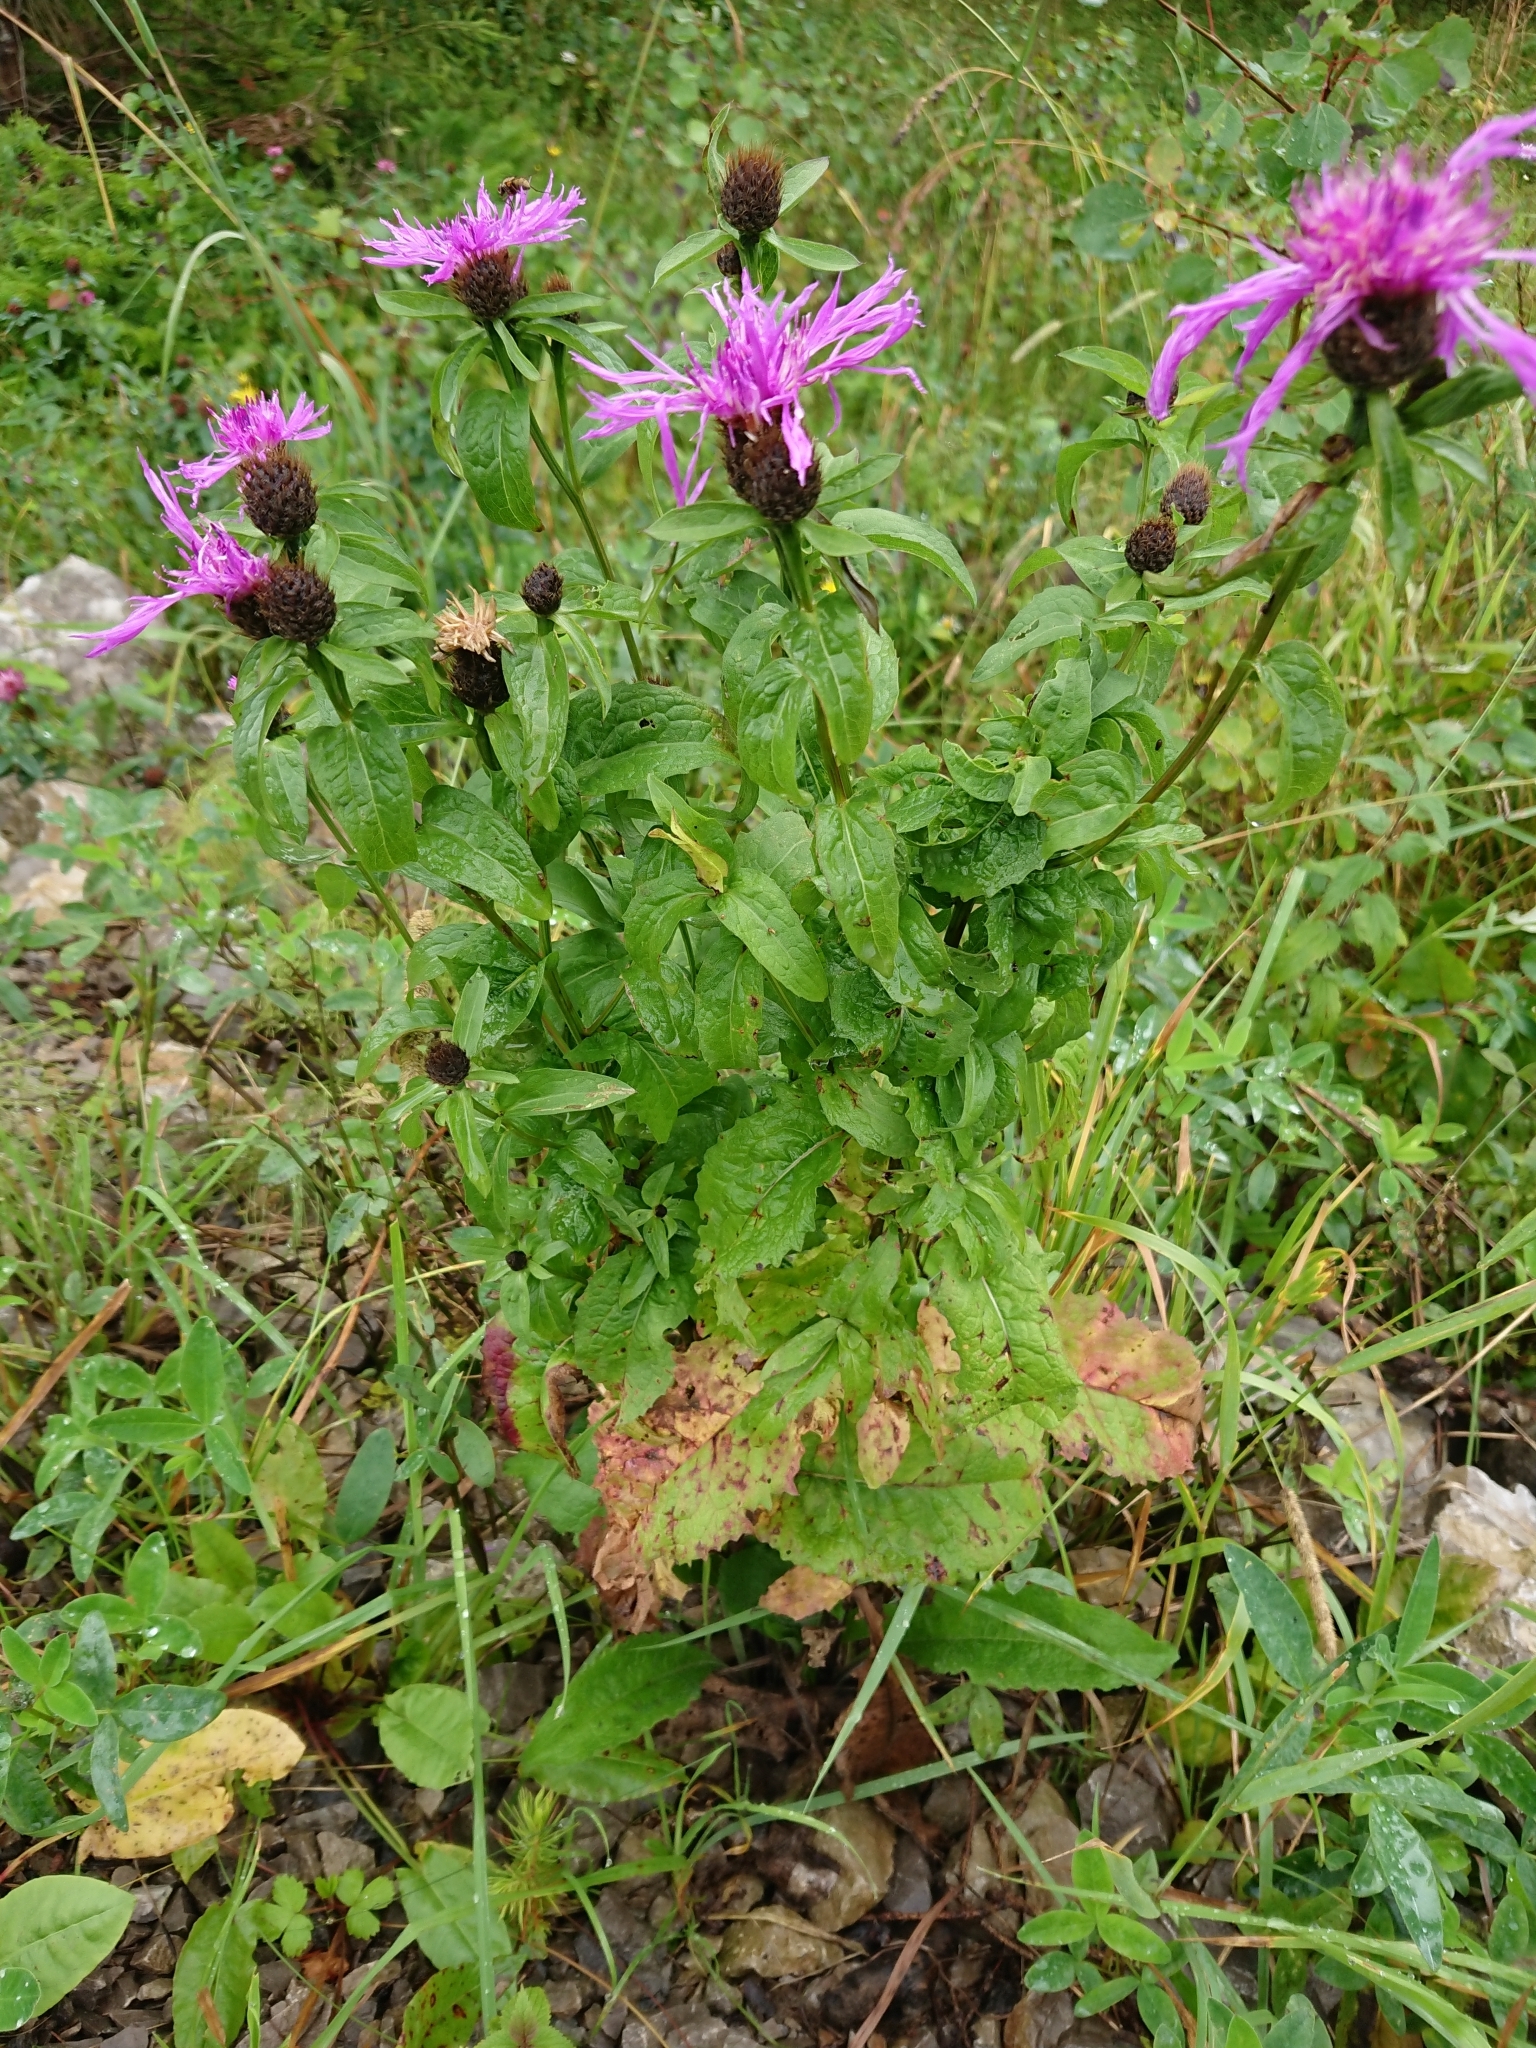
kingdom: Plantae
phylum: Tracheophyta
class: Magnoliopsida
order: Asterales
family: Asteraceae
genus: Centaurea
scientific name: Centaurea jacea
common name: Brown knapweed
